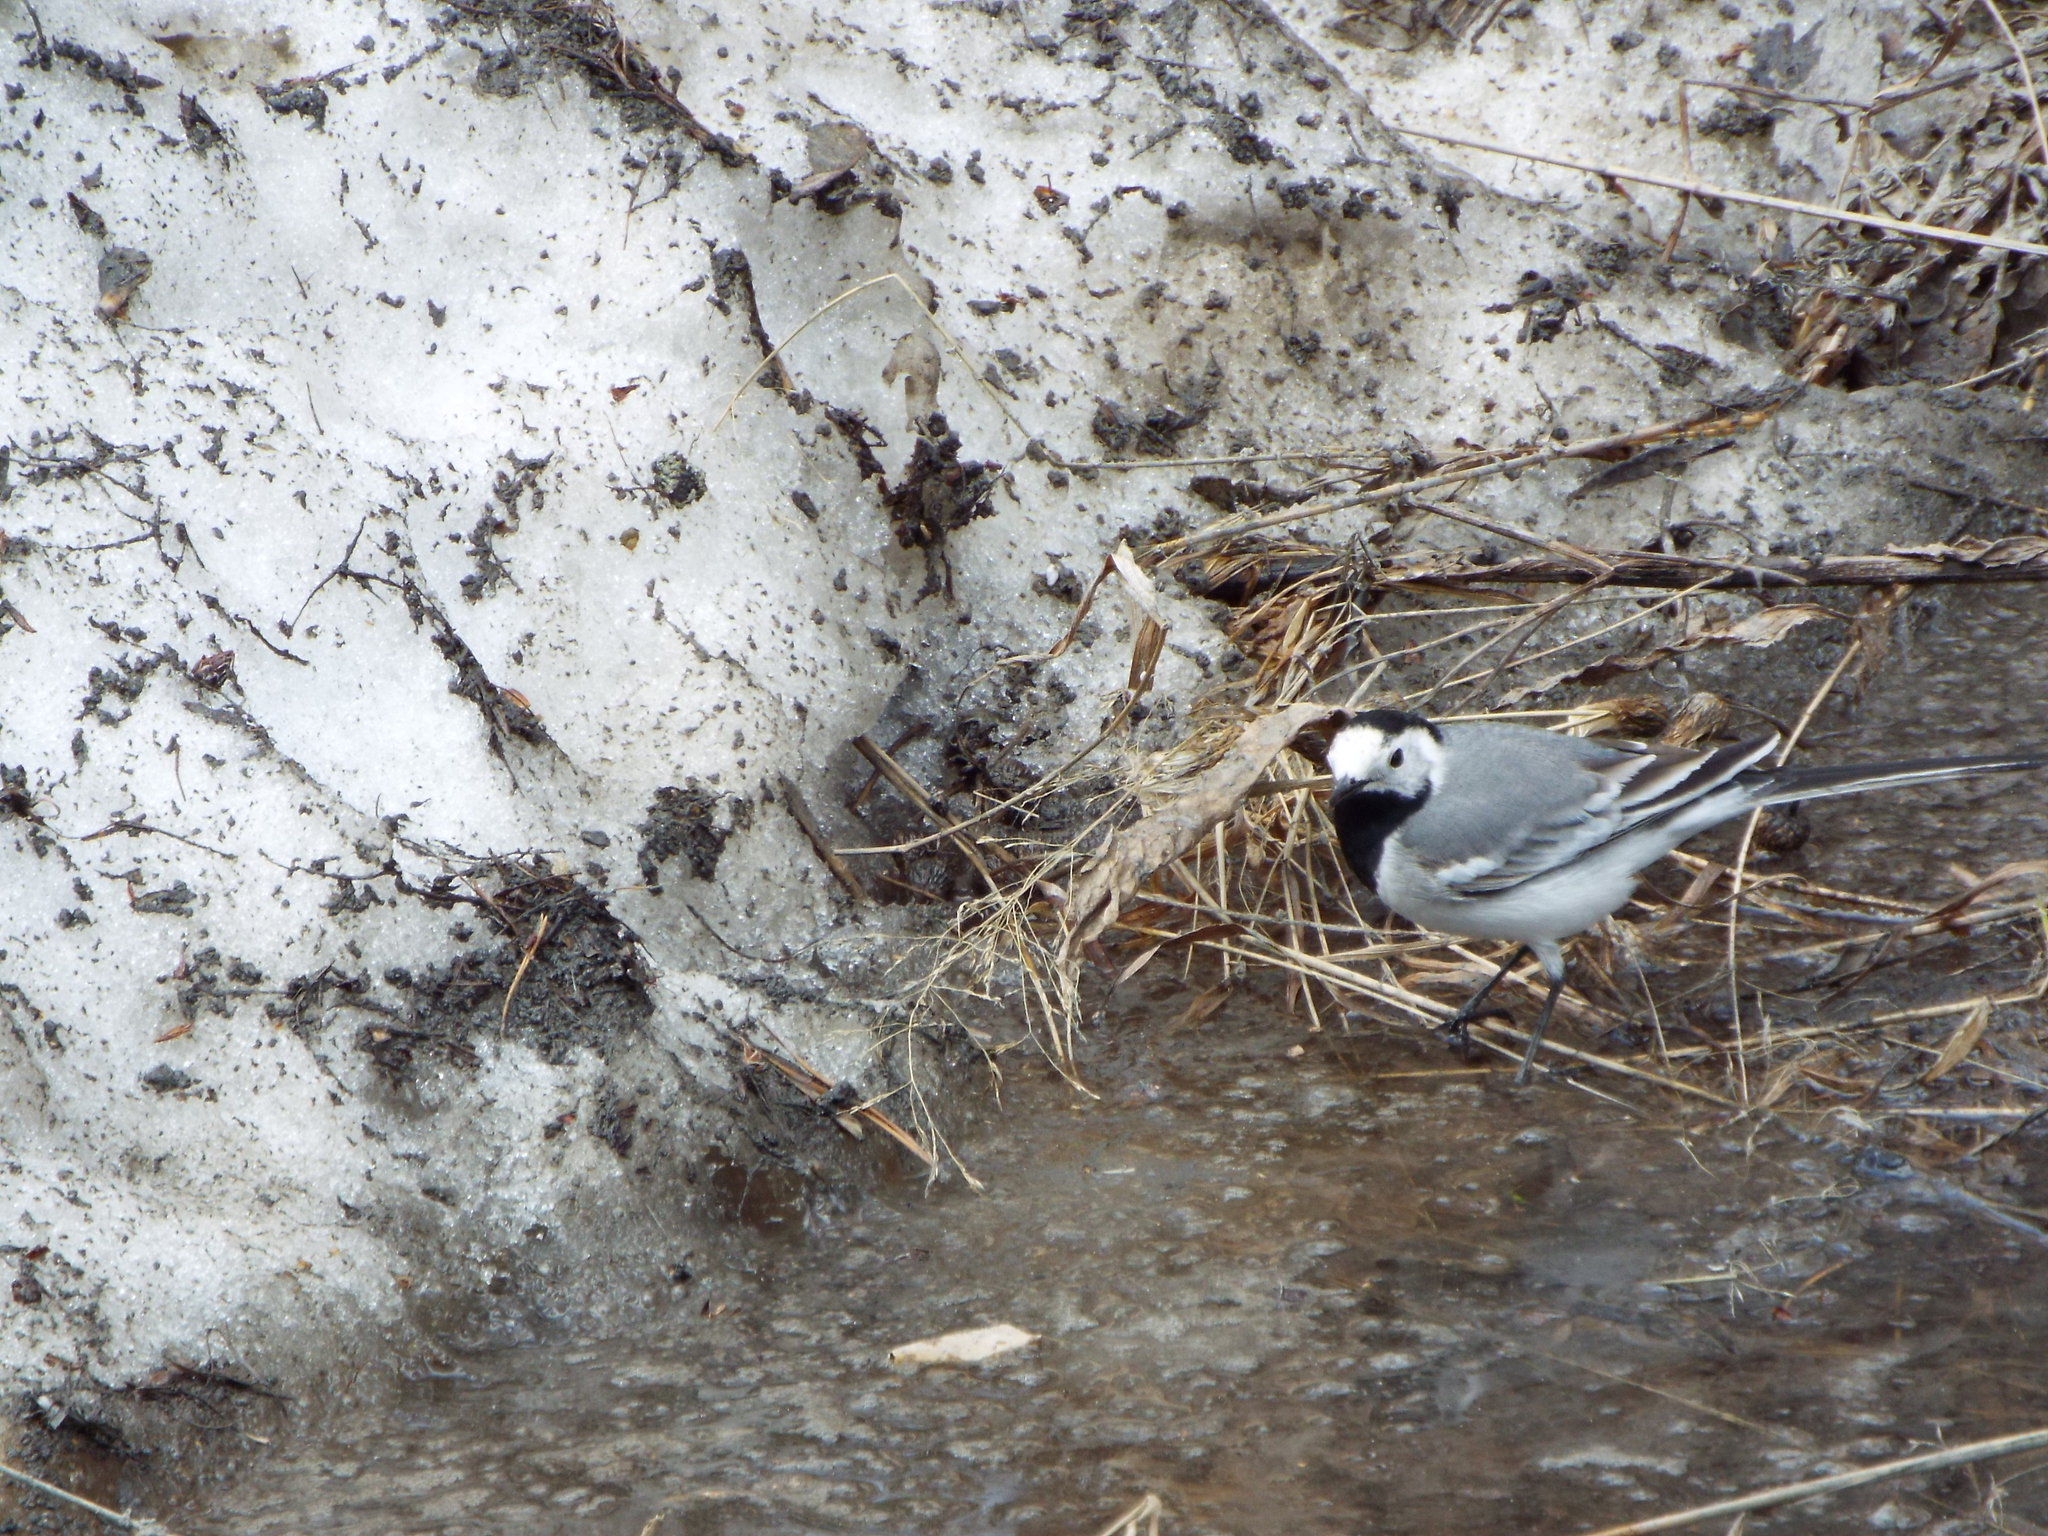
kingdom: Animalia
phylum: Chordata
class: Aves
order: Passeriformes
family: Motacillidae
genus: Motacilla
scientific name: Motacilla alba
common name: White wagtail
